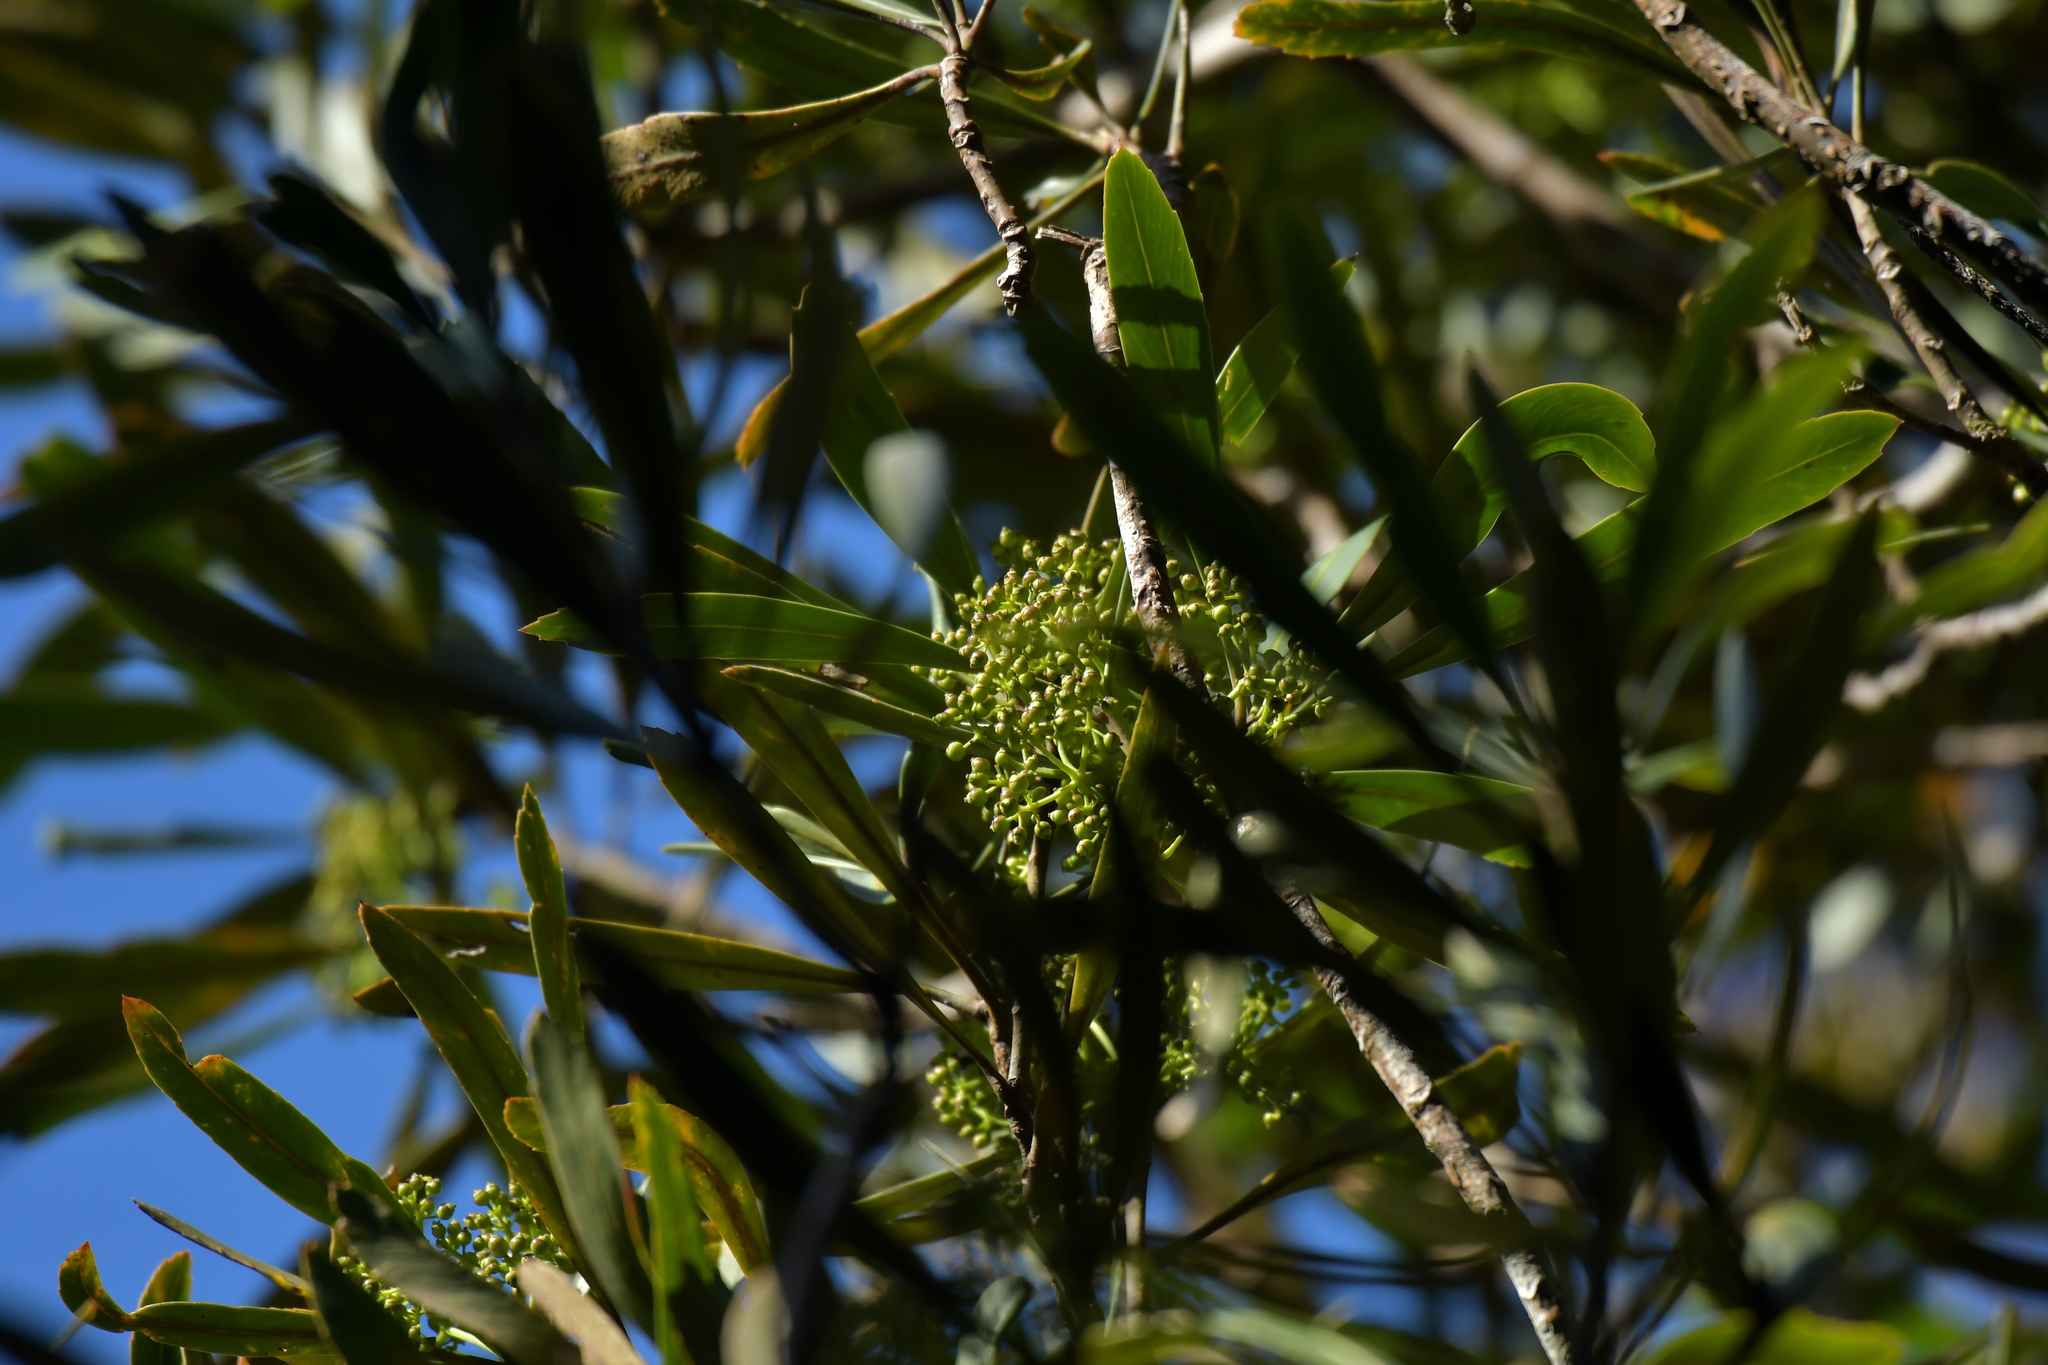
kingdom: Plantae
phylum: Tracheophyta
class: Magnoliopsida
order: Apiales
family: Araliaceae
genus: Pseudopanax
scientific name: Pseudopanax crassifolius
